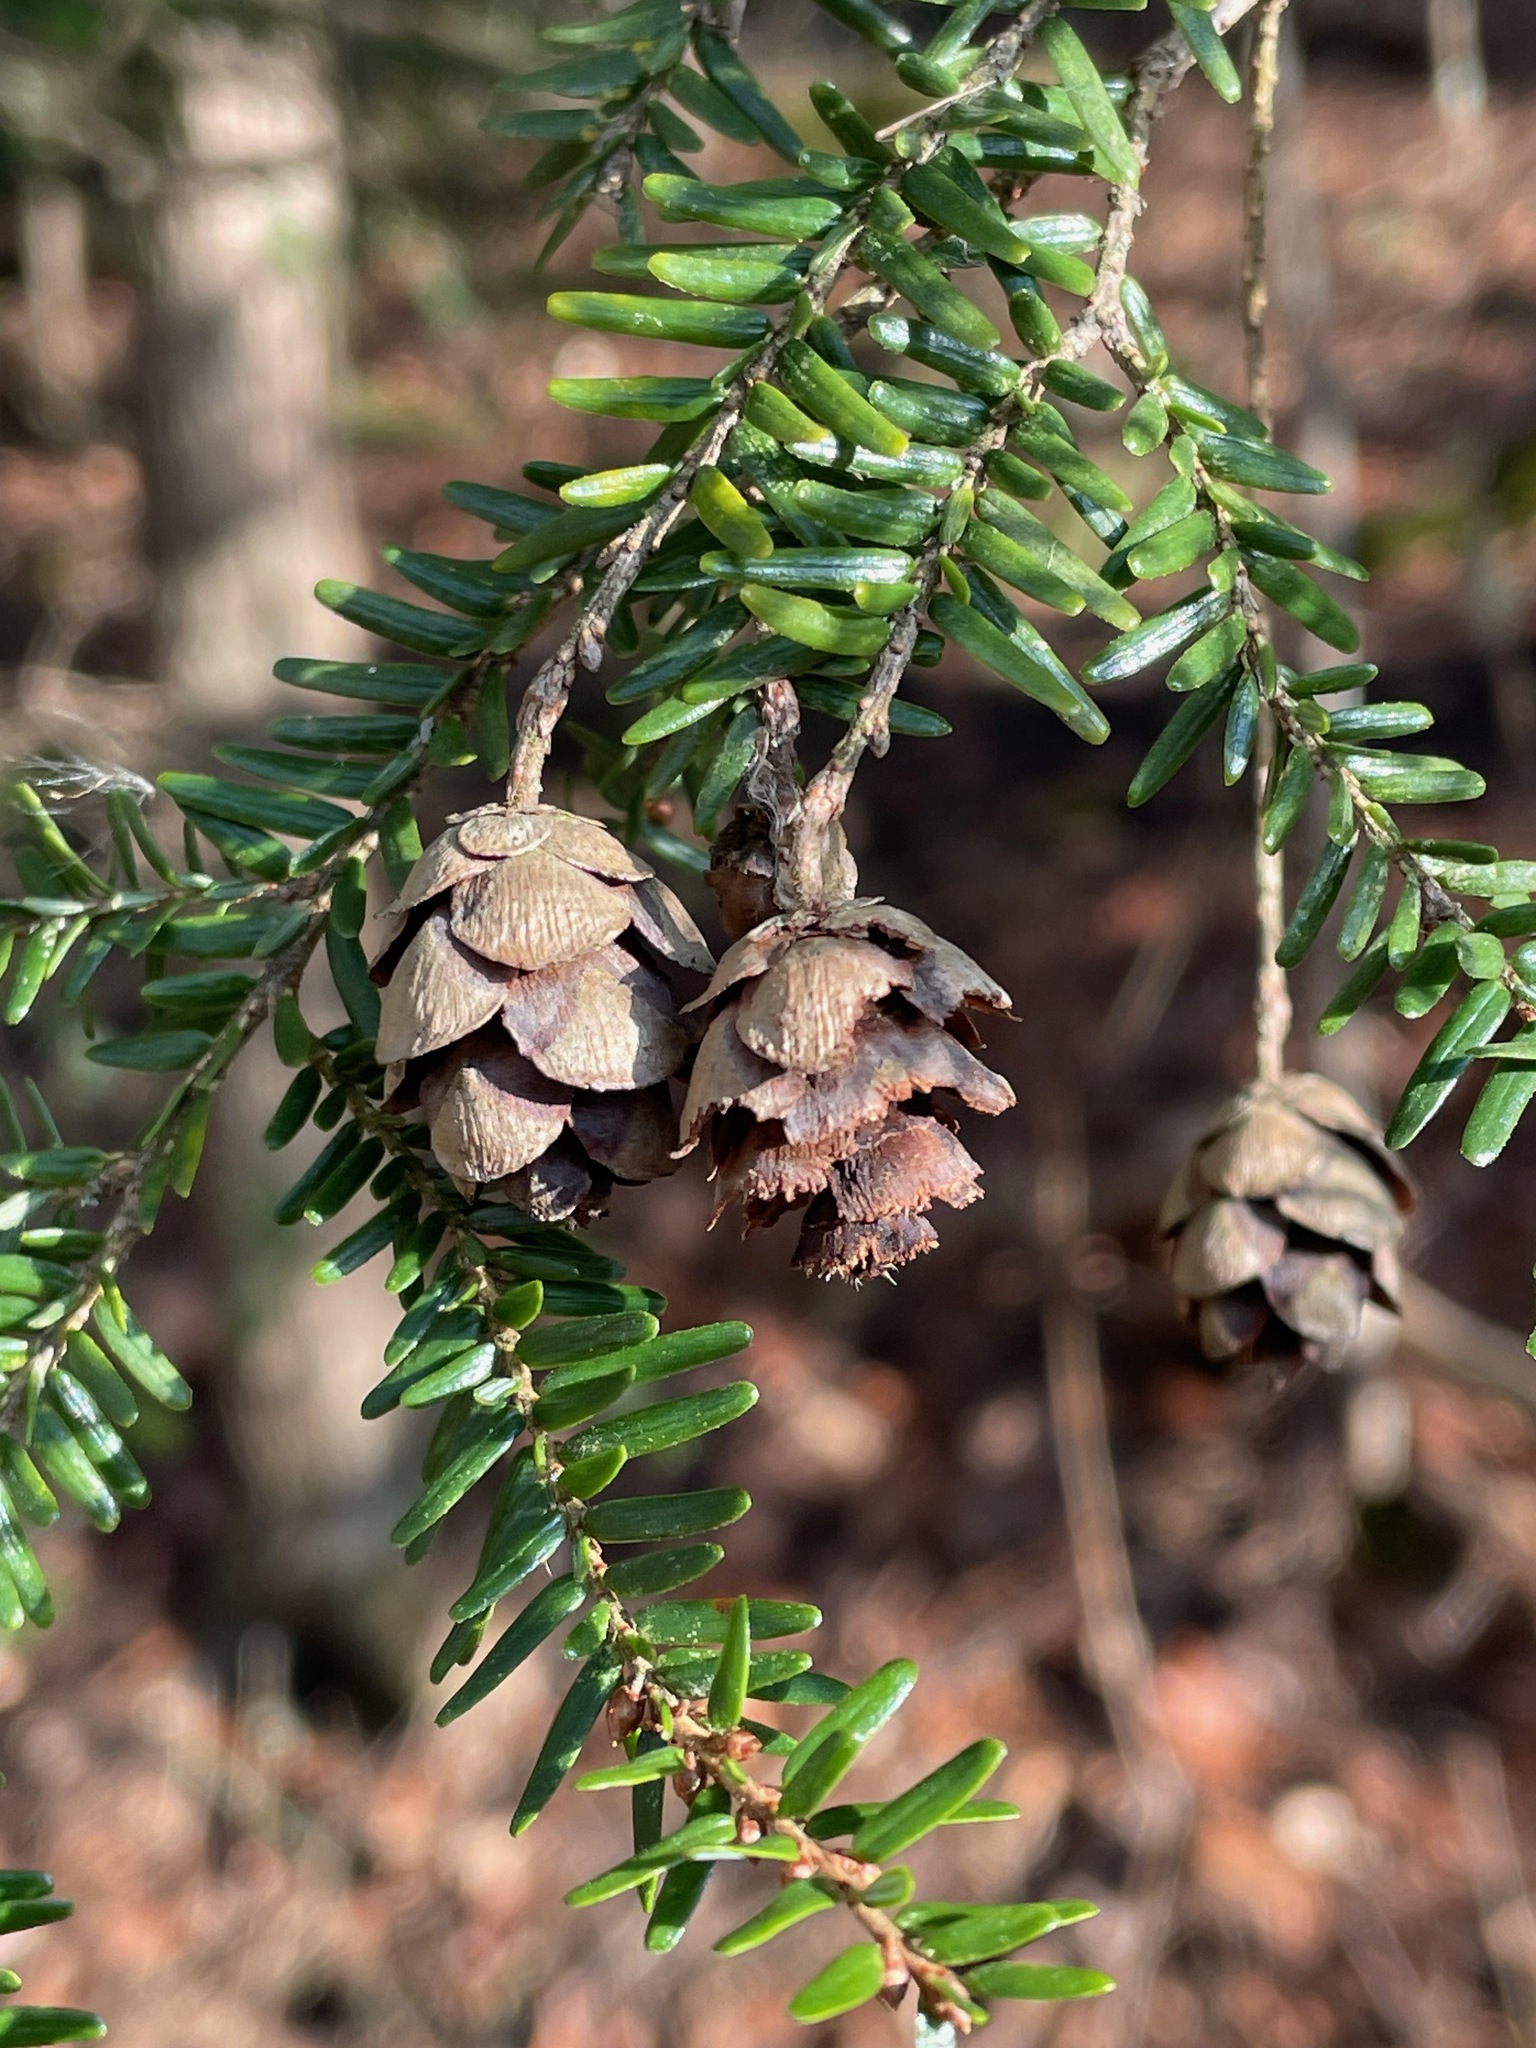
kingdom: Plantae
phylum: Tracheophyta
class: Pinopsida
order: Pinales
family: Pinaceae
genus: Tsuga
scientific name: Tsuga canadensis
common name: Eastern hemlock
